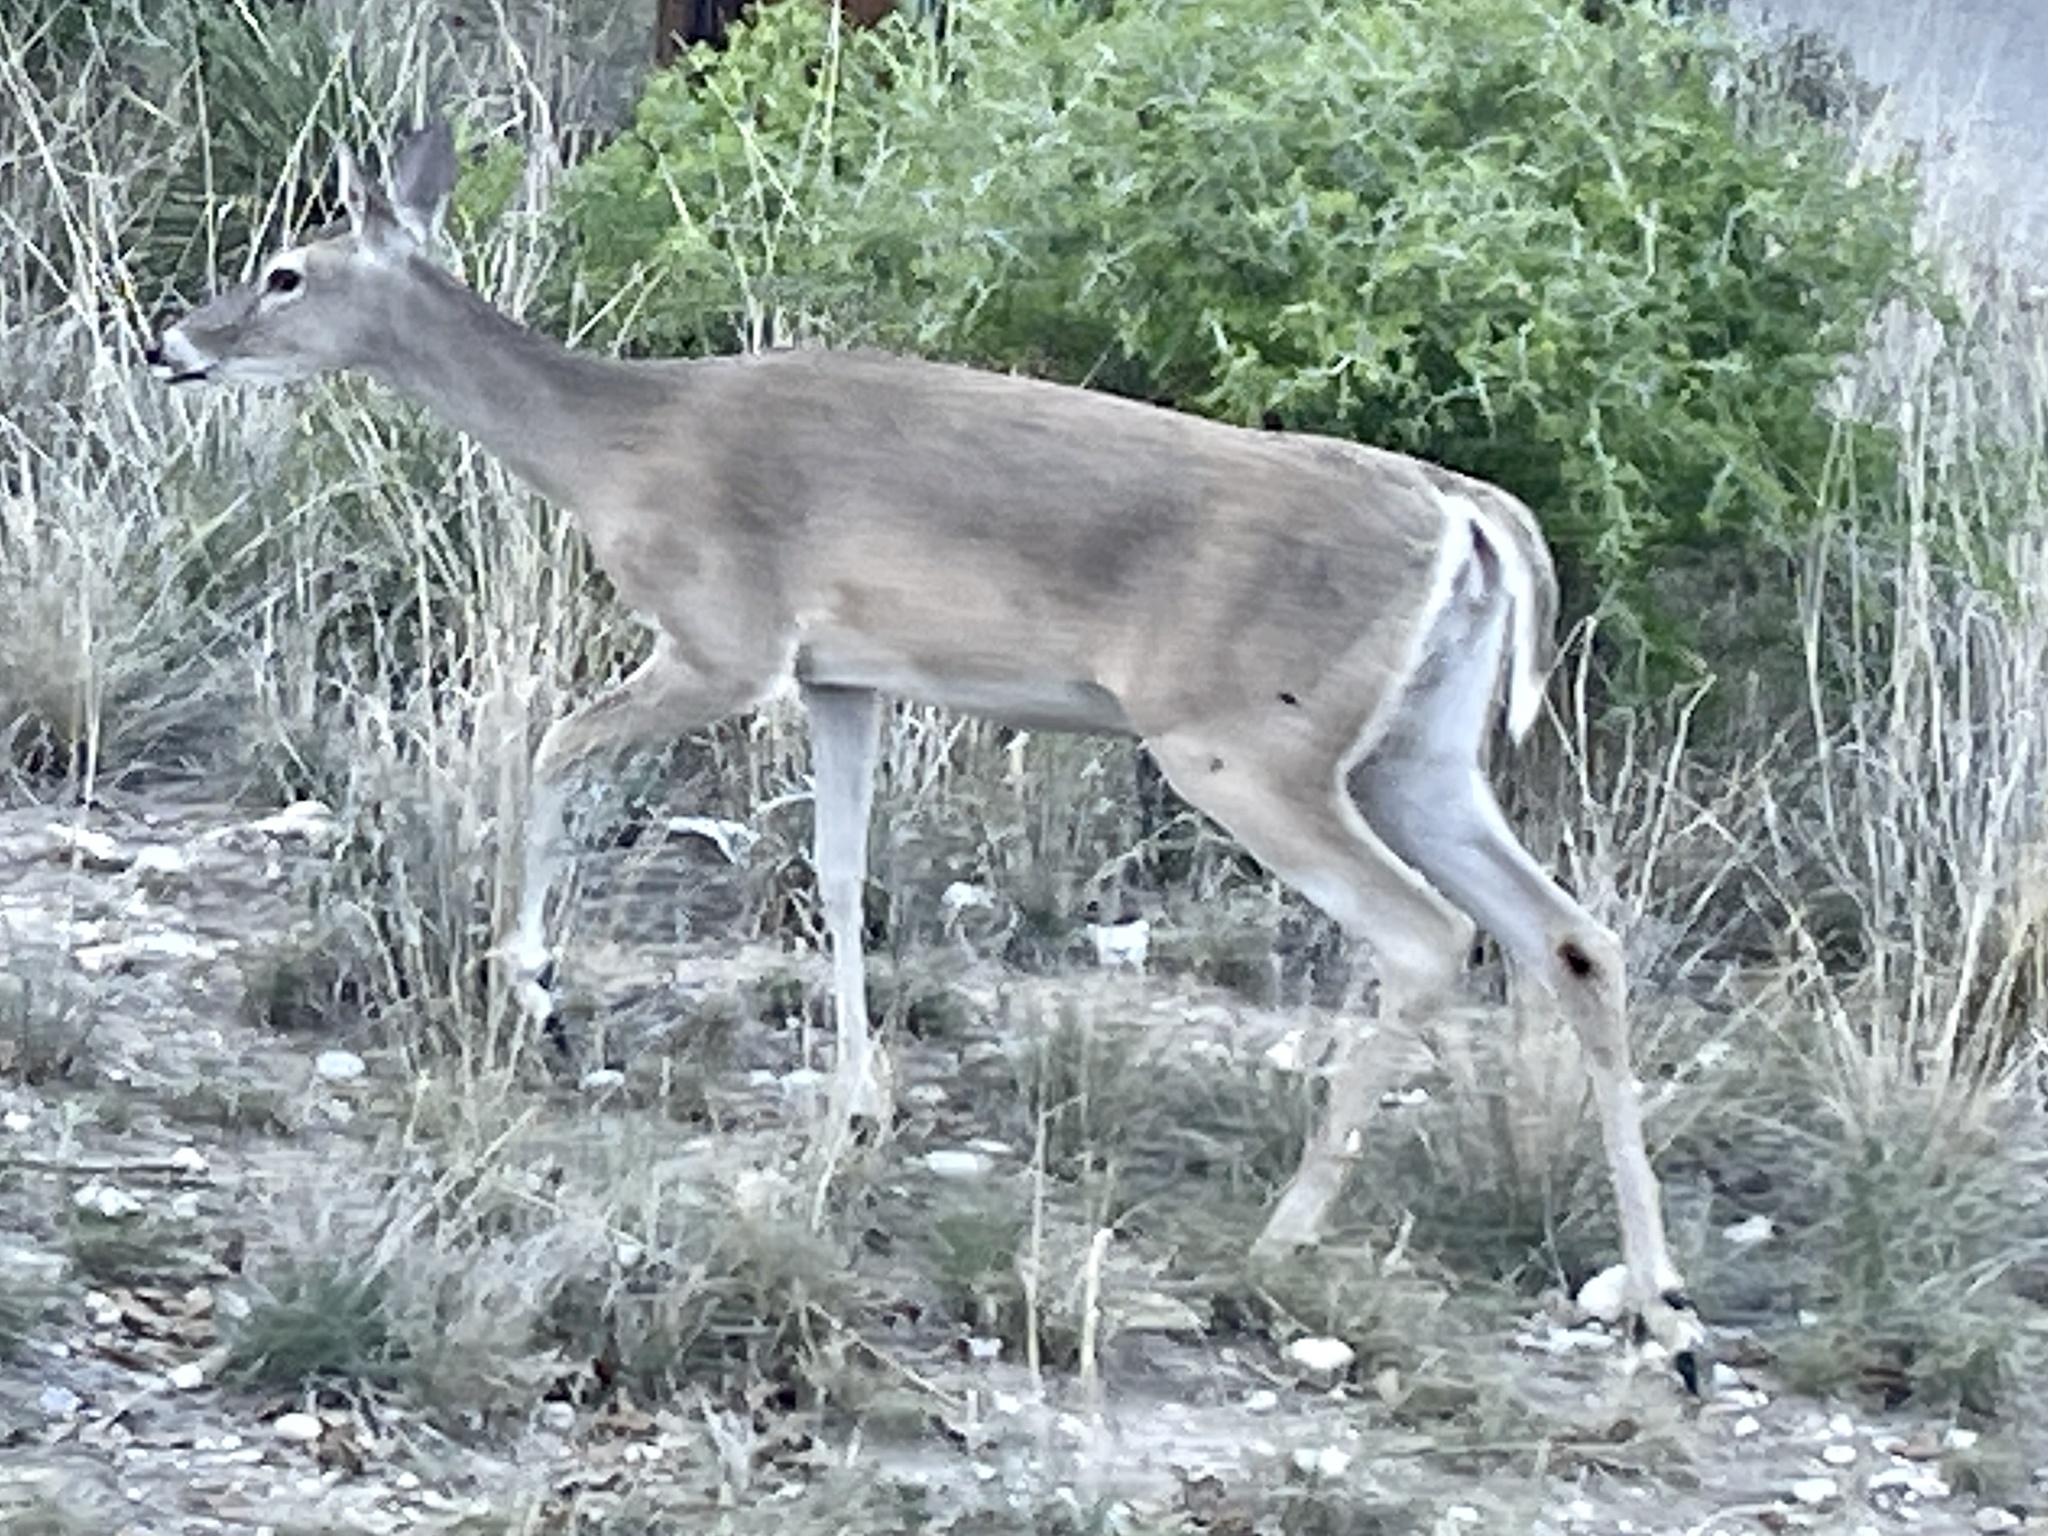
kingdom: Animalia
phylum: Chordata
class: Mammalia
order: Artiodactyla
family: Cervidae
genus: Odocoileus
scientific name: Odocoileus virginianus
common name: White-tailed deer
